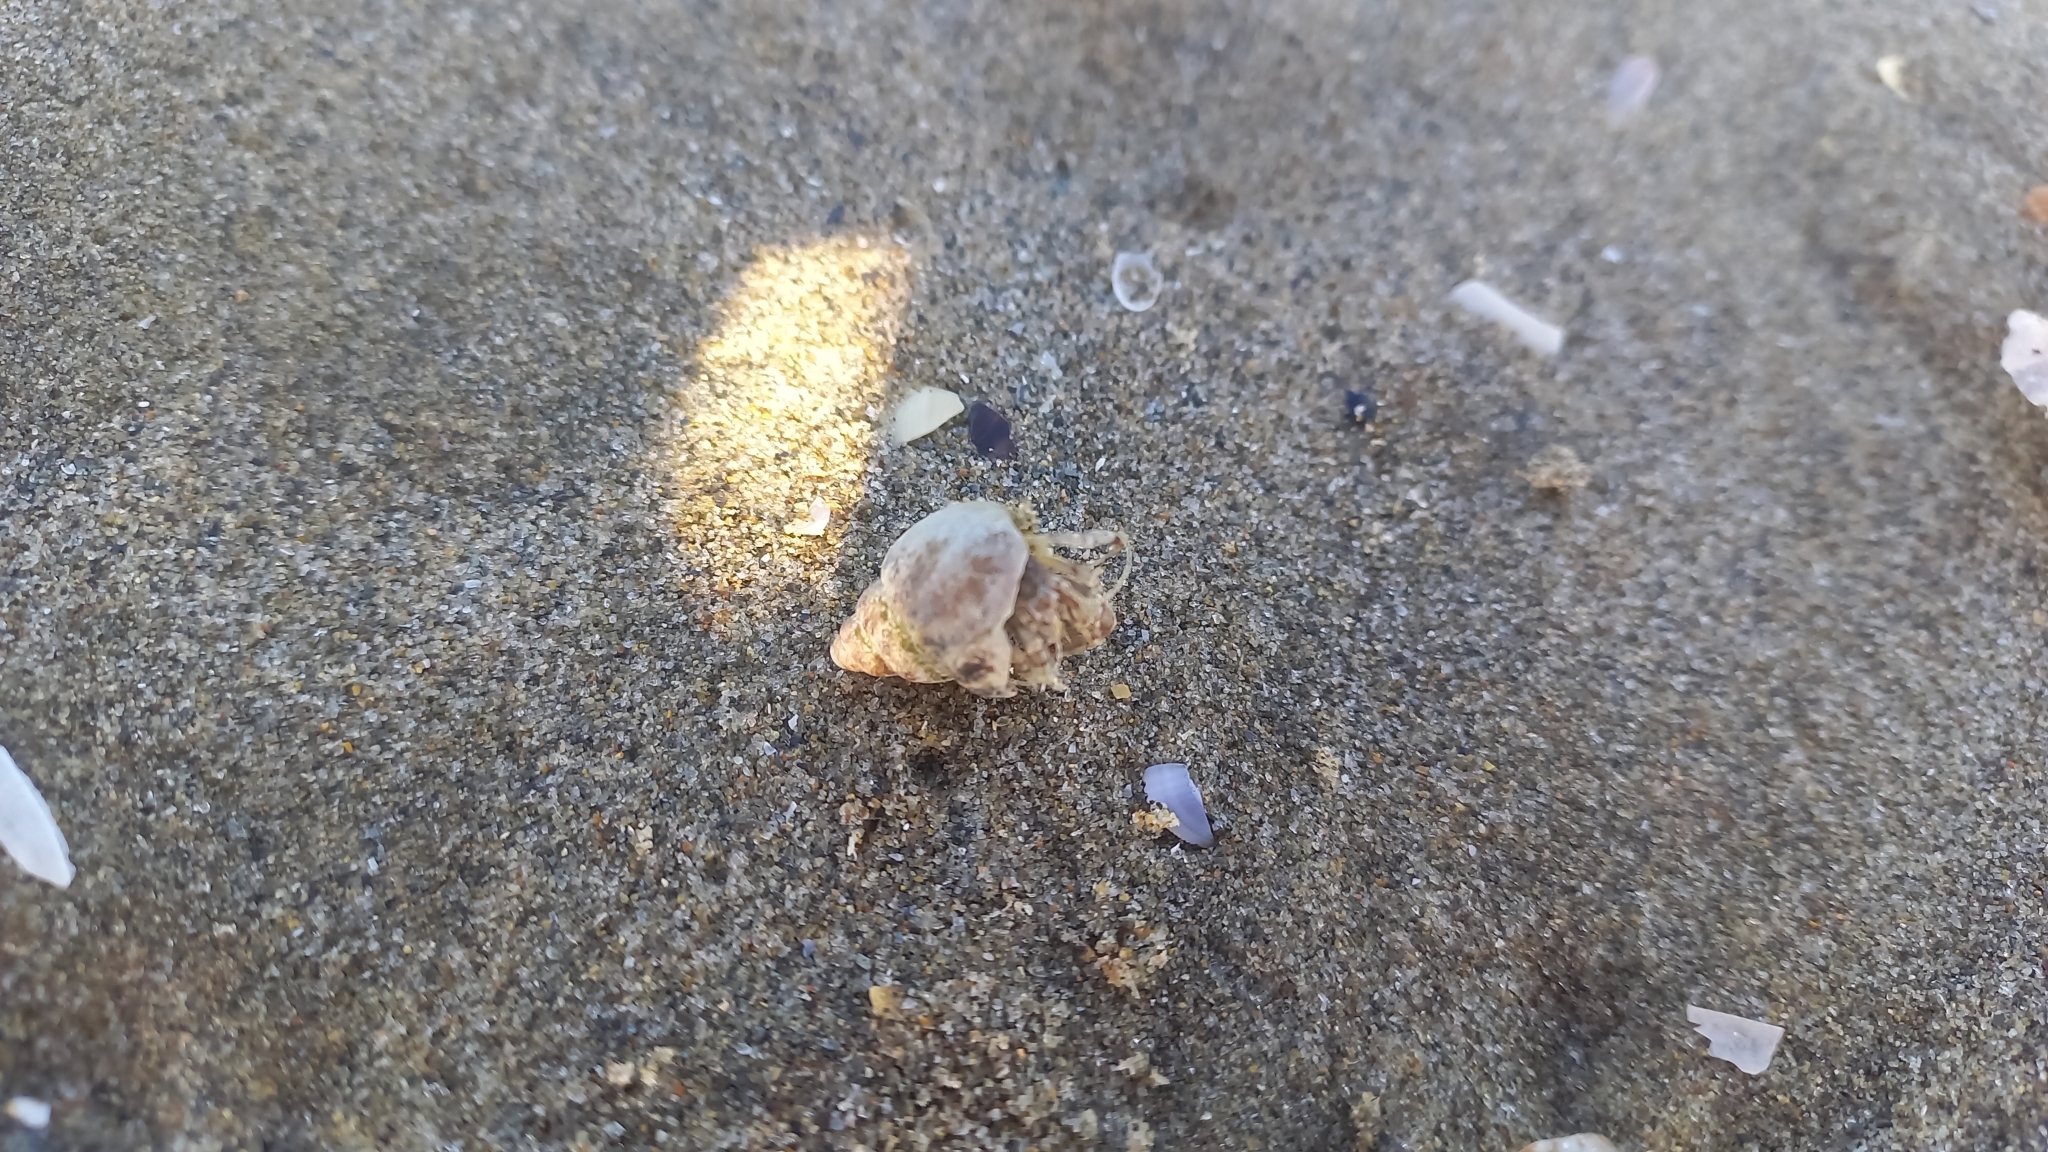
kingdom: Animalia
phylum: Arthropoda
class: Malacostraca
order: Decapoda
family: Diogenidae
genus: Diogenes
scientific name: Diogenes pugilator
